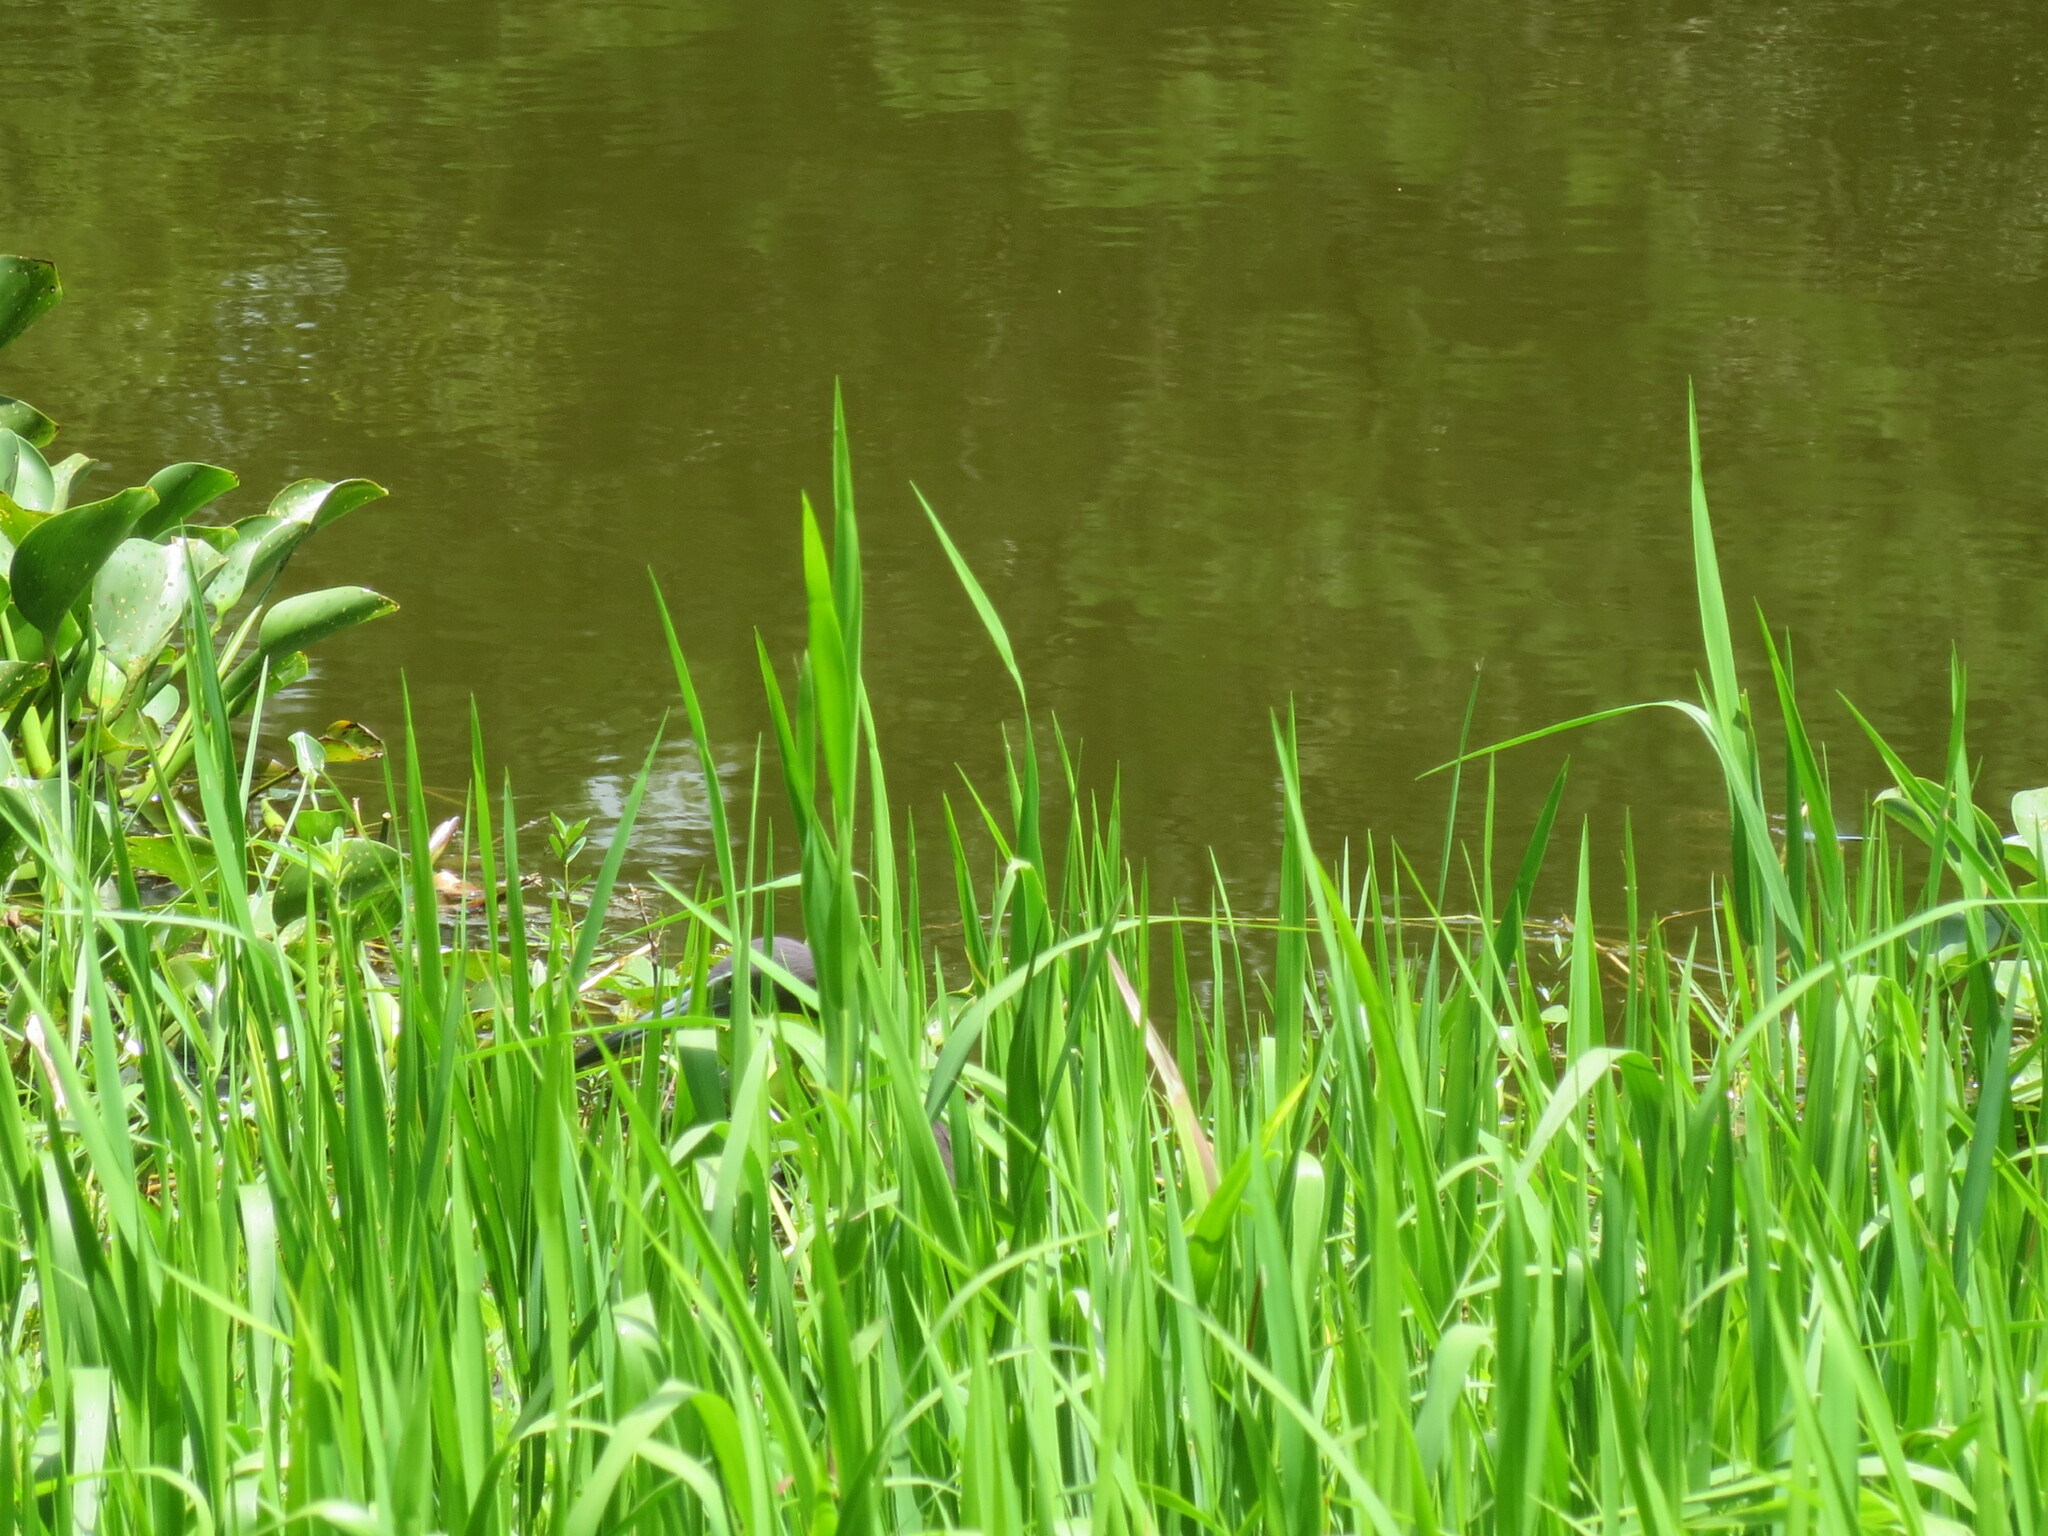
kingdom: Animalia
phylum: Chordata
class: Aves
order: Pelecaniformes
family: Ardeidae
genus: Egretta
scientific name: Egretta caerulea
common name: Little blue heron
